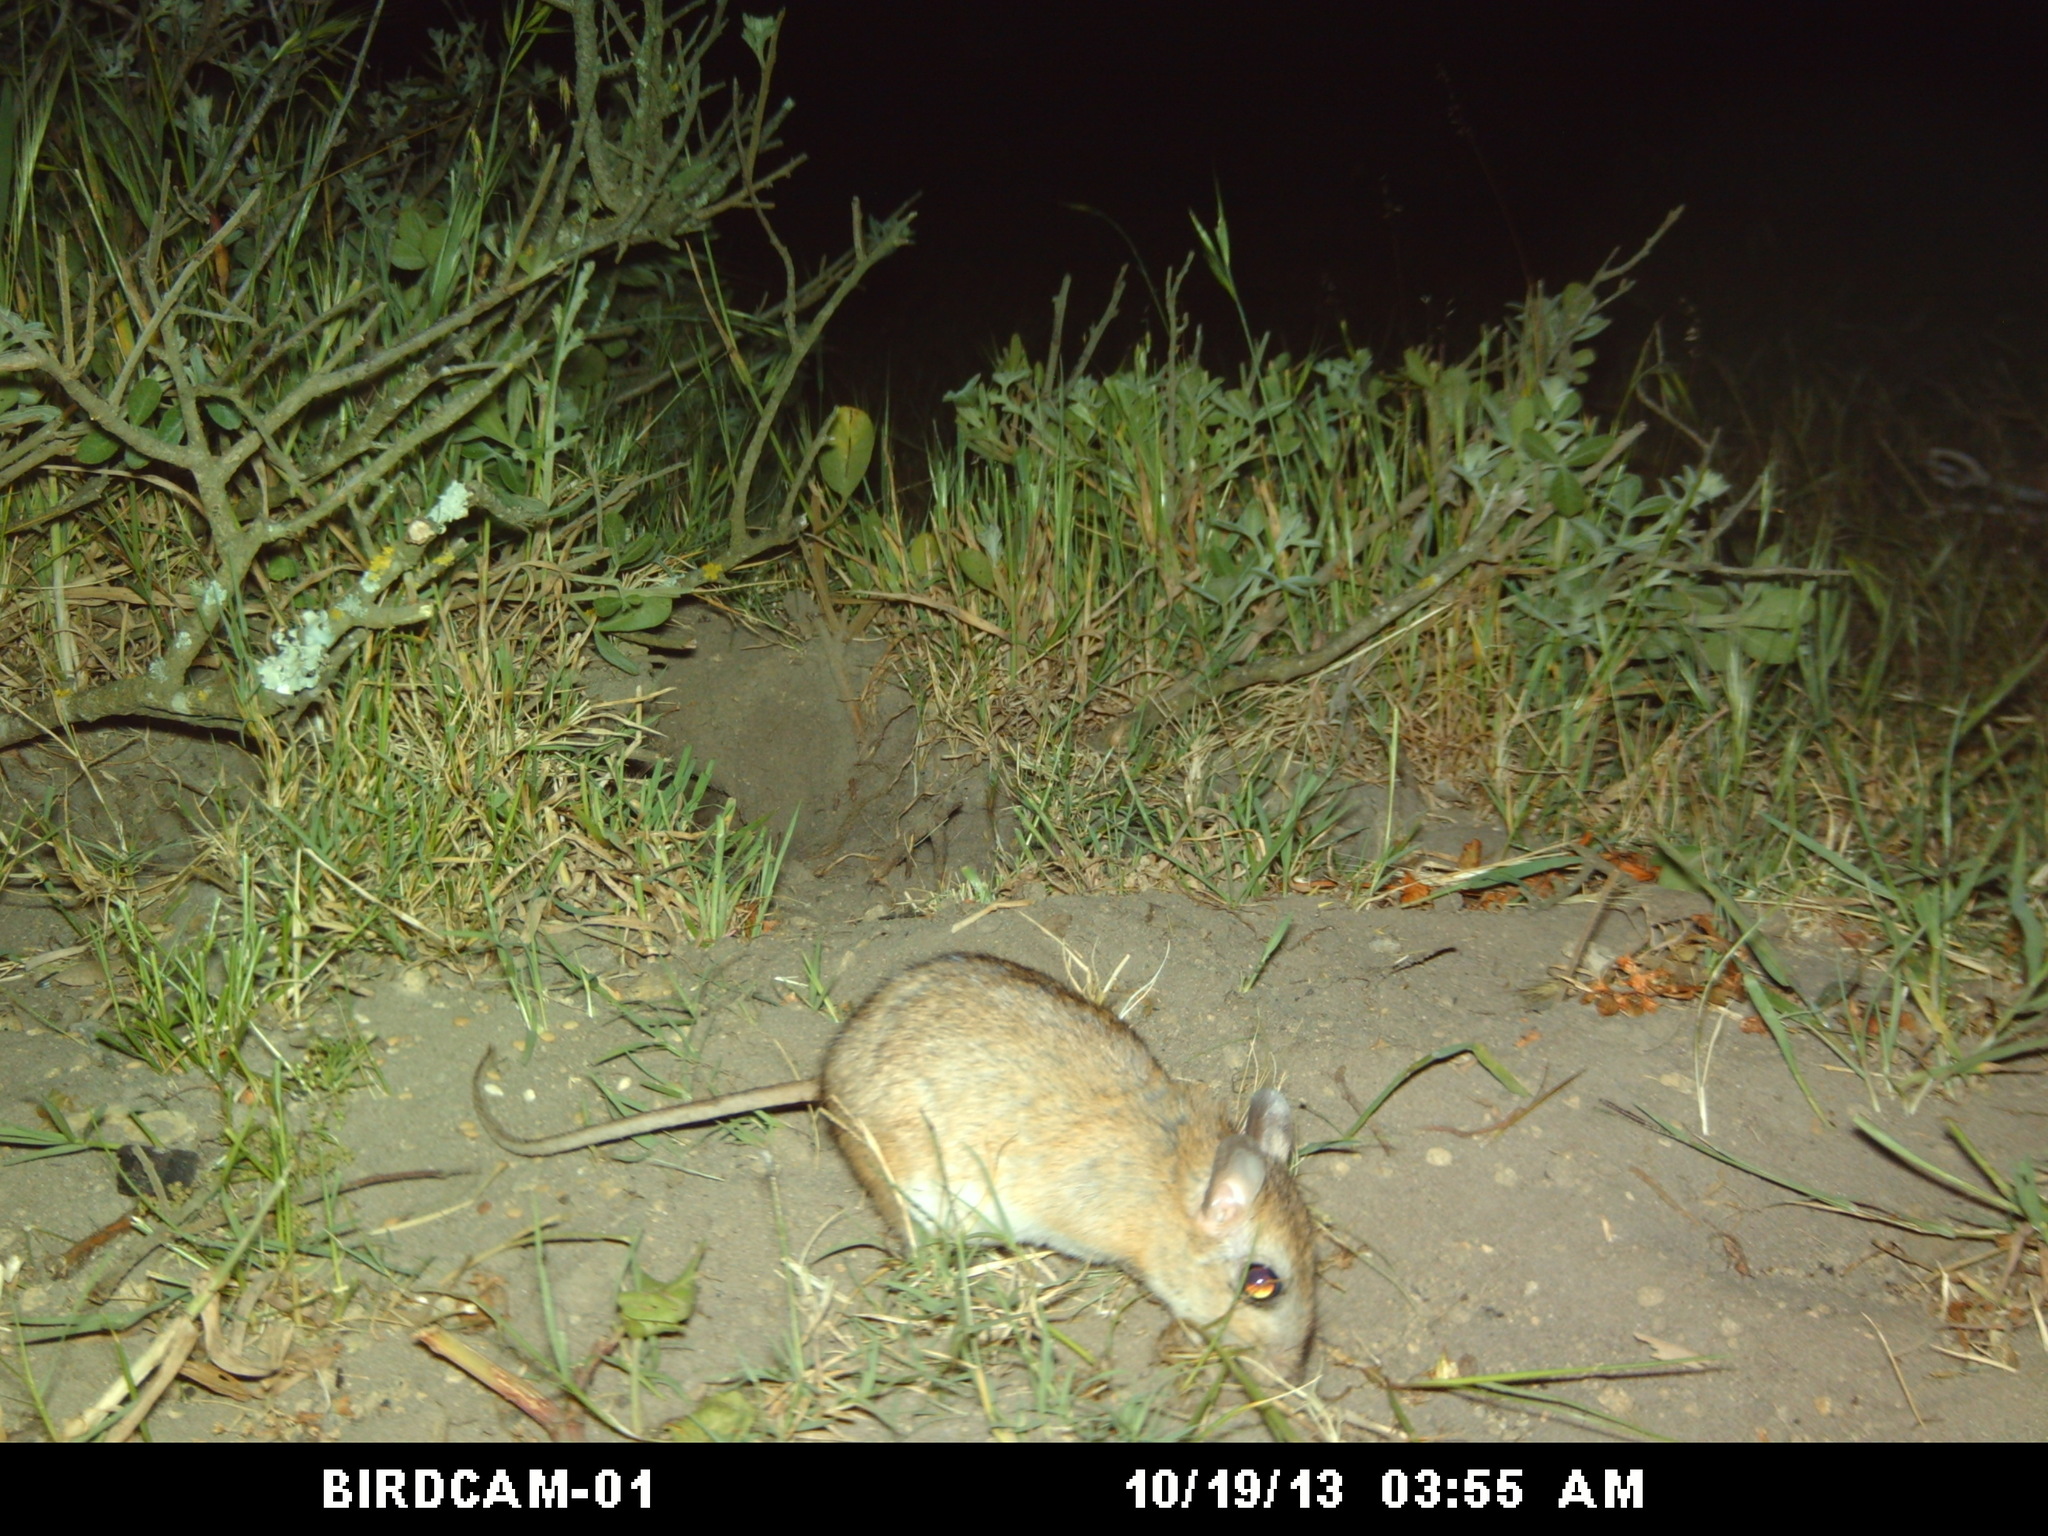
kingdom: Animalia
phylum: Chordata
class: Mammalia
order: Rodentia
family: Muridae
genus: Gerbilliscus
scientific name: Gerbilliscus afer
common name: Cape gerbil
